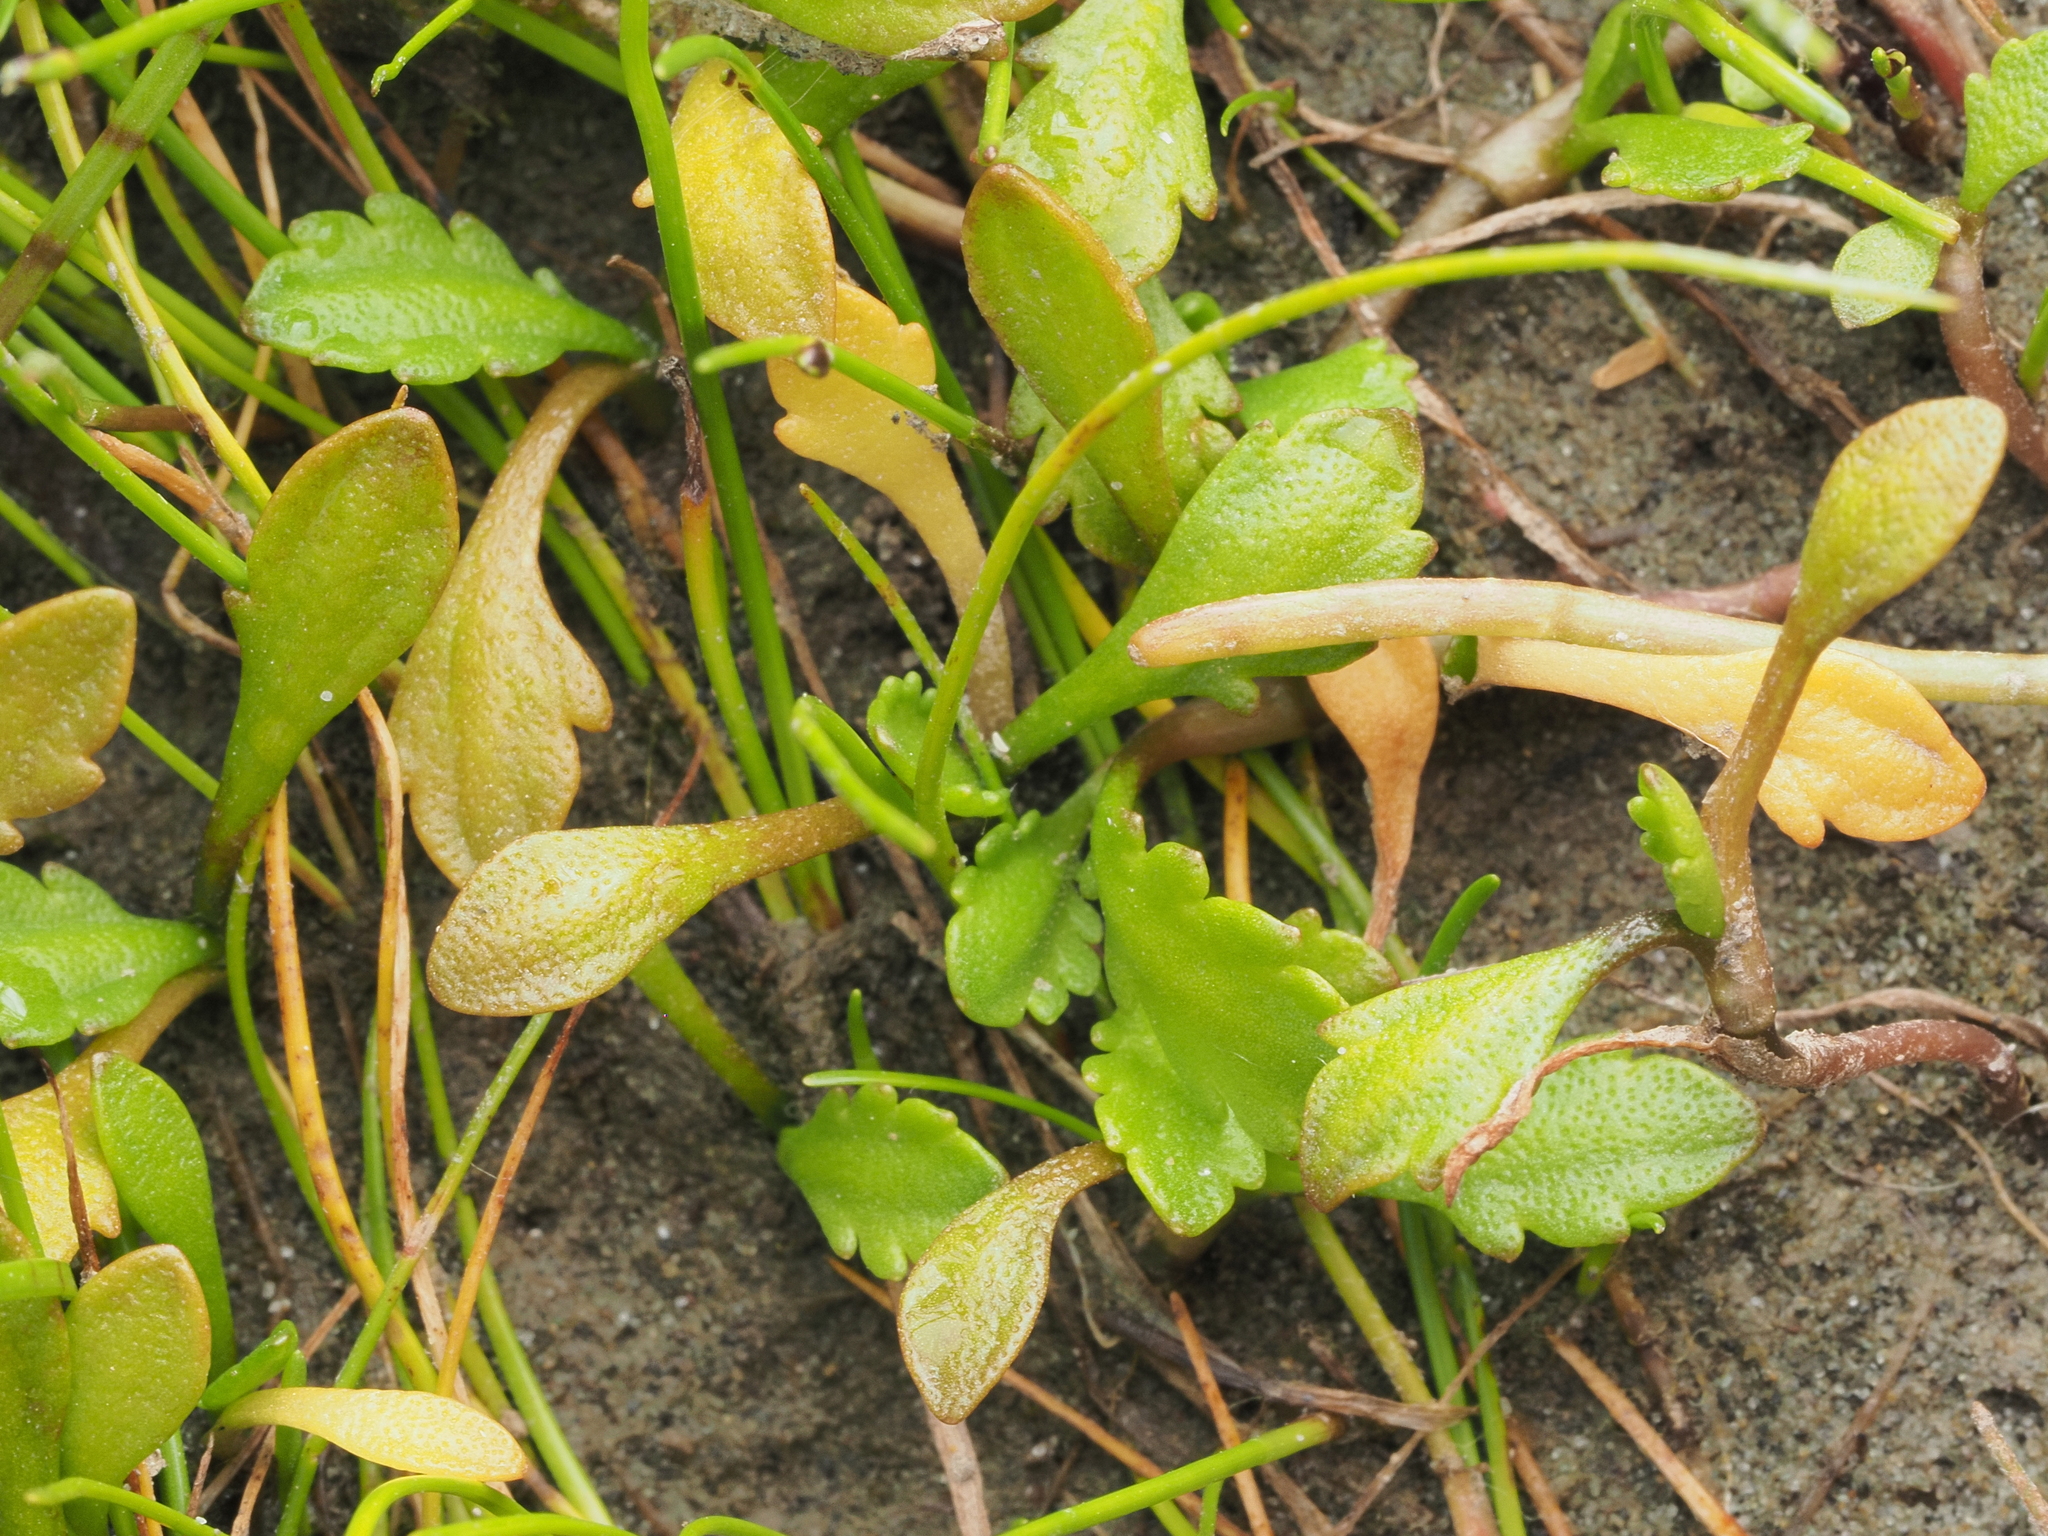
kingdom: Plantae
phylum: Tracheophyta
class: Magnoliopsida
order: Asterales
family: Asteraceae
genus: Leptinella
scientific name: Leptinella dioica
